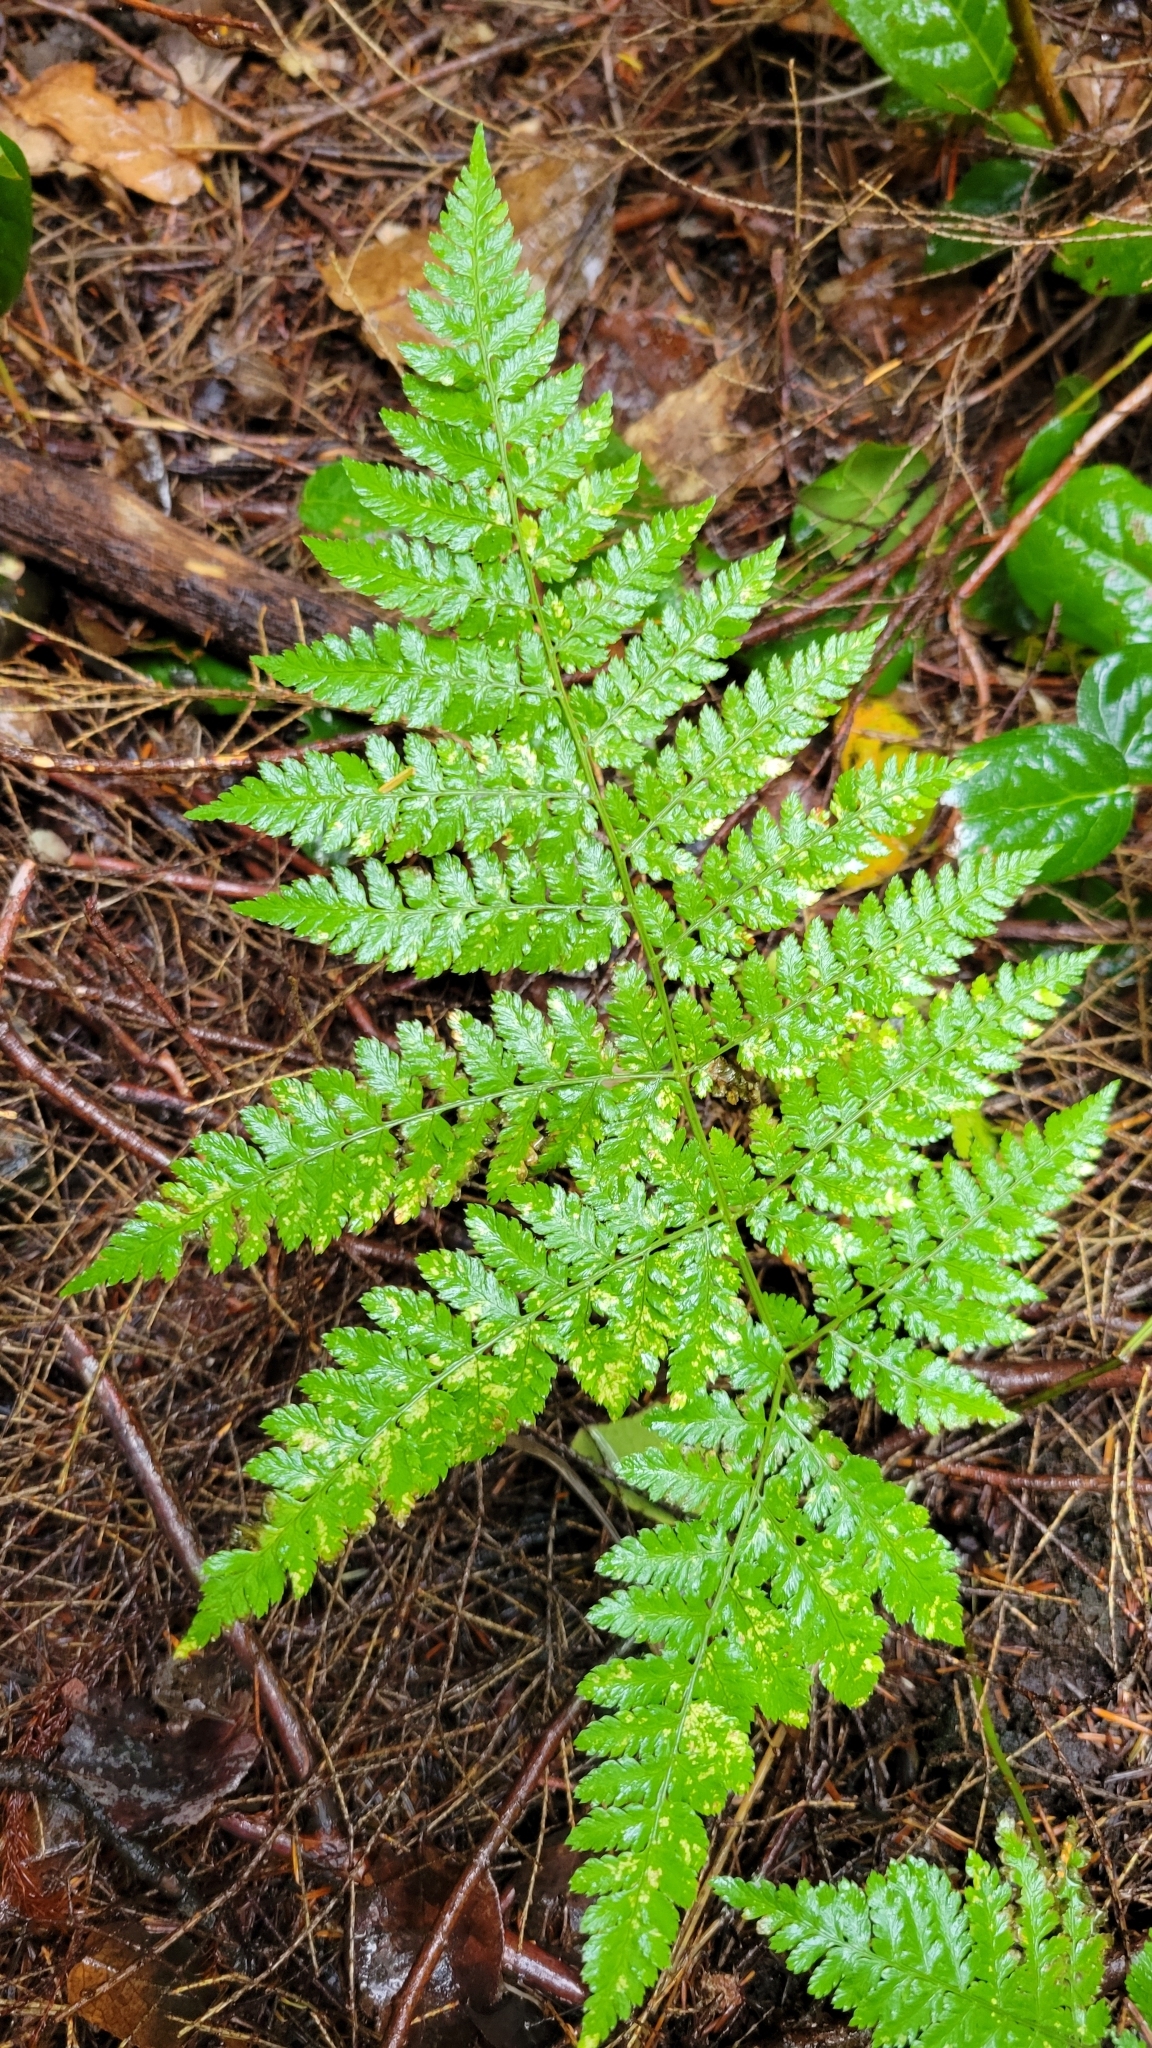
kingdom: Plantae
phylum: Tracheophyta
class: Polypodiopsida
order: Polypodiales
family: Dryopteridaceae
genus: Dryopteris
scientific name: Dryopteris expansa
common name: Northern buckler fern
